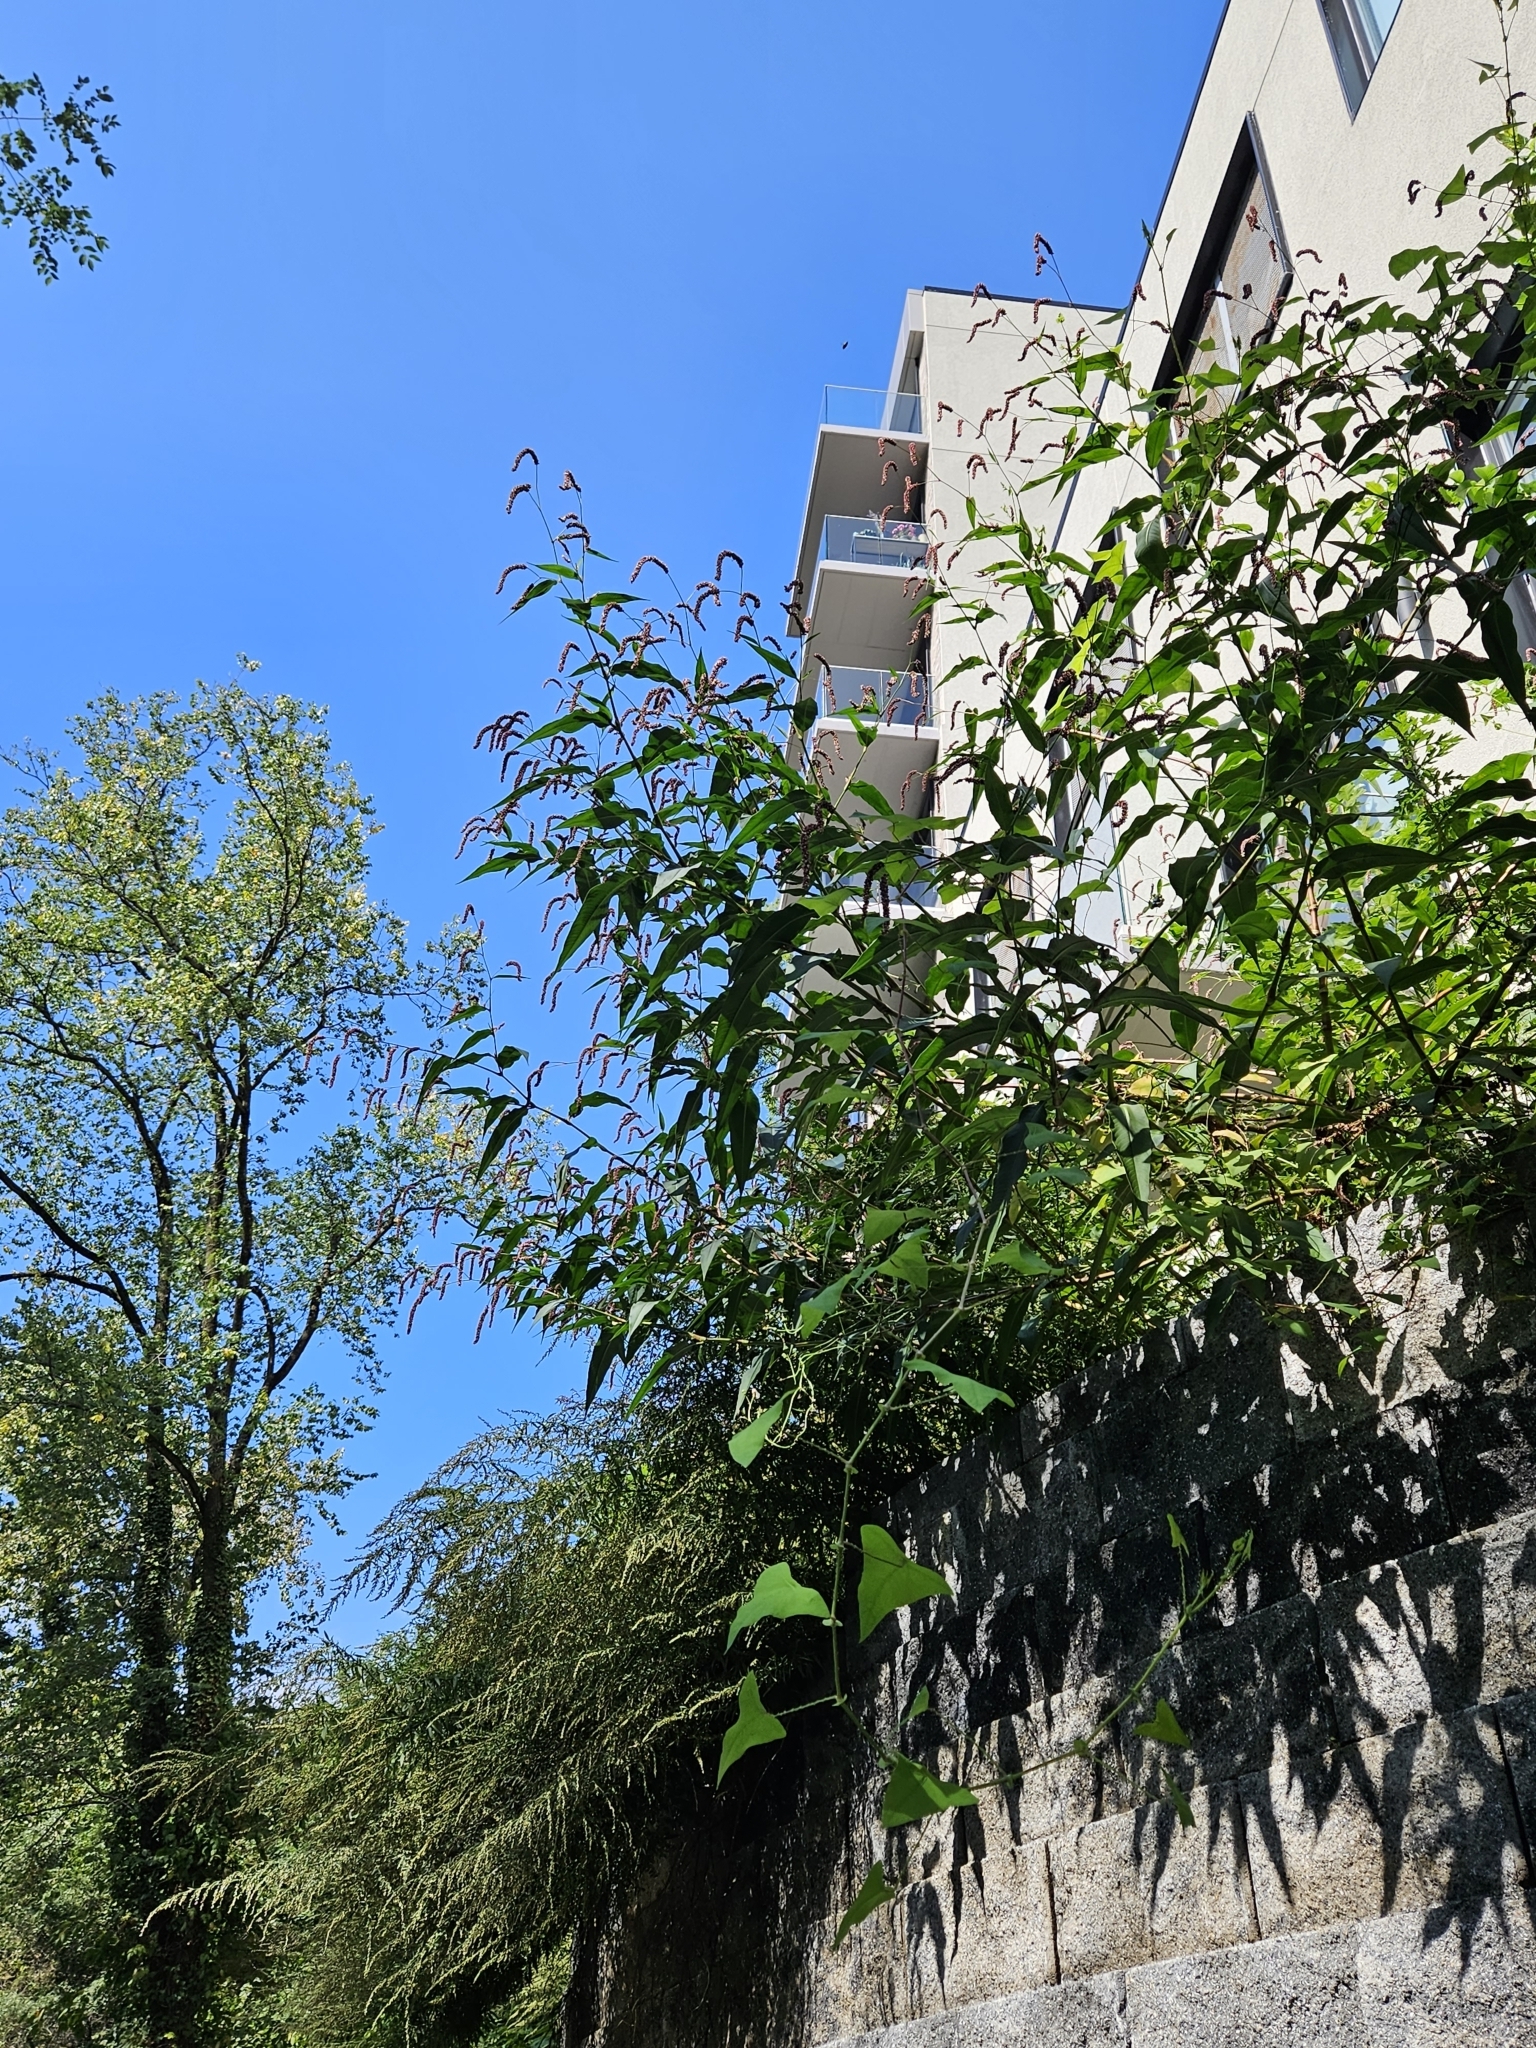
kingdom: Plantae
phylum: Tracheophyta
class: Magnoliopsida
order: Caryophyllales
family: Polygonaceae
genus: Persicaria
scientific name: Persicaria extremiorientalis
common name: Far-eastern smartweed
